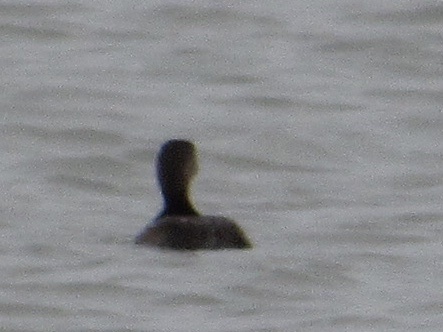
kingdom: Animalia
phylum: Chordata
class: Aves
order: Podicipediformes
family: Podicipedidae
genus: Podilymbus
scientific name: Podilymbus podiceps
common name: Pied-billed grebe
